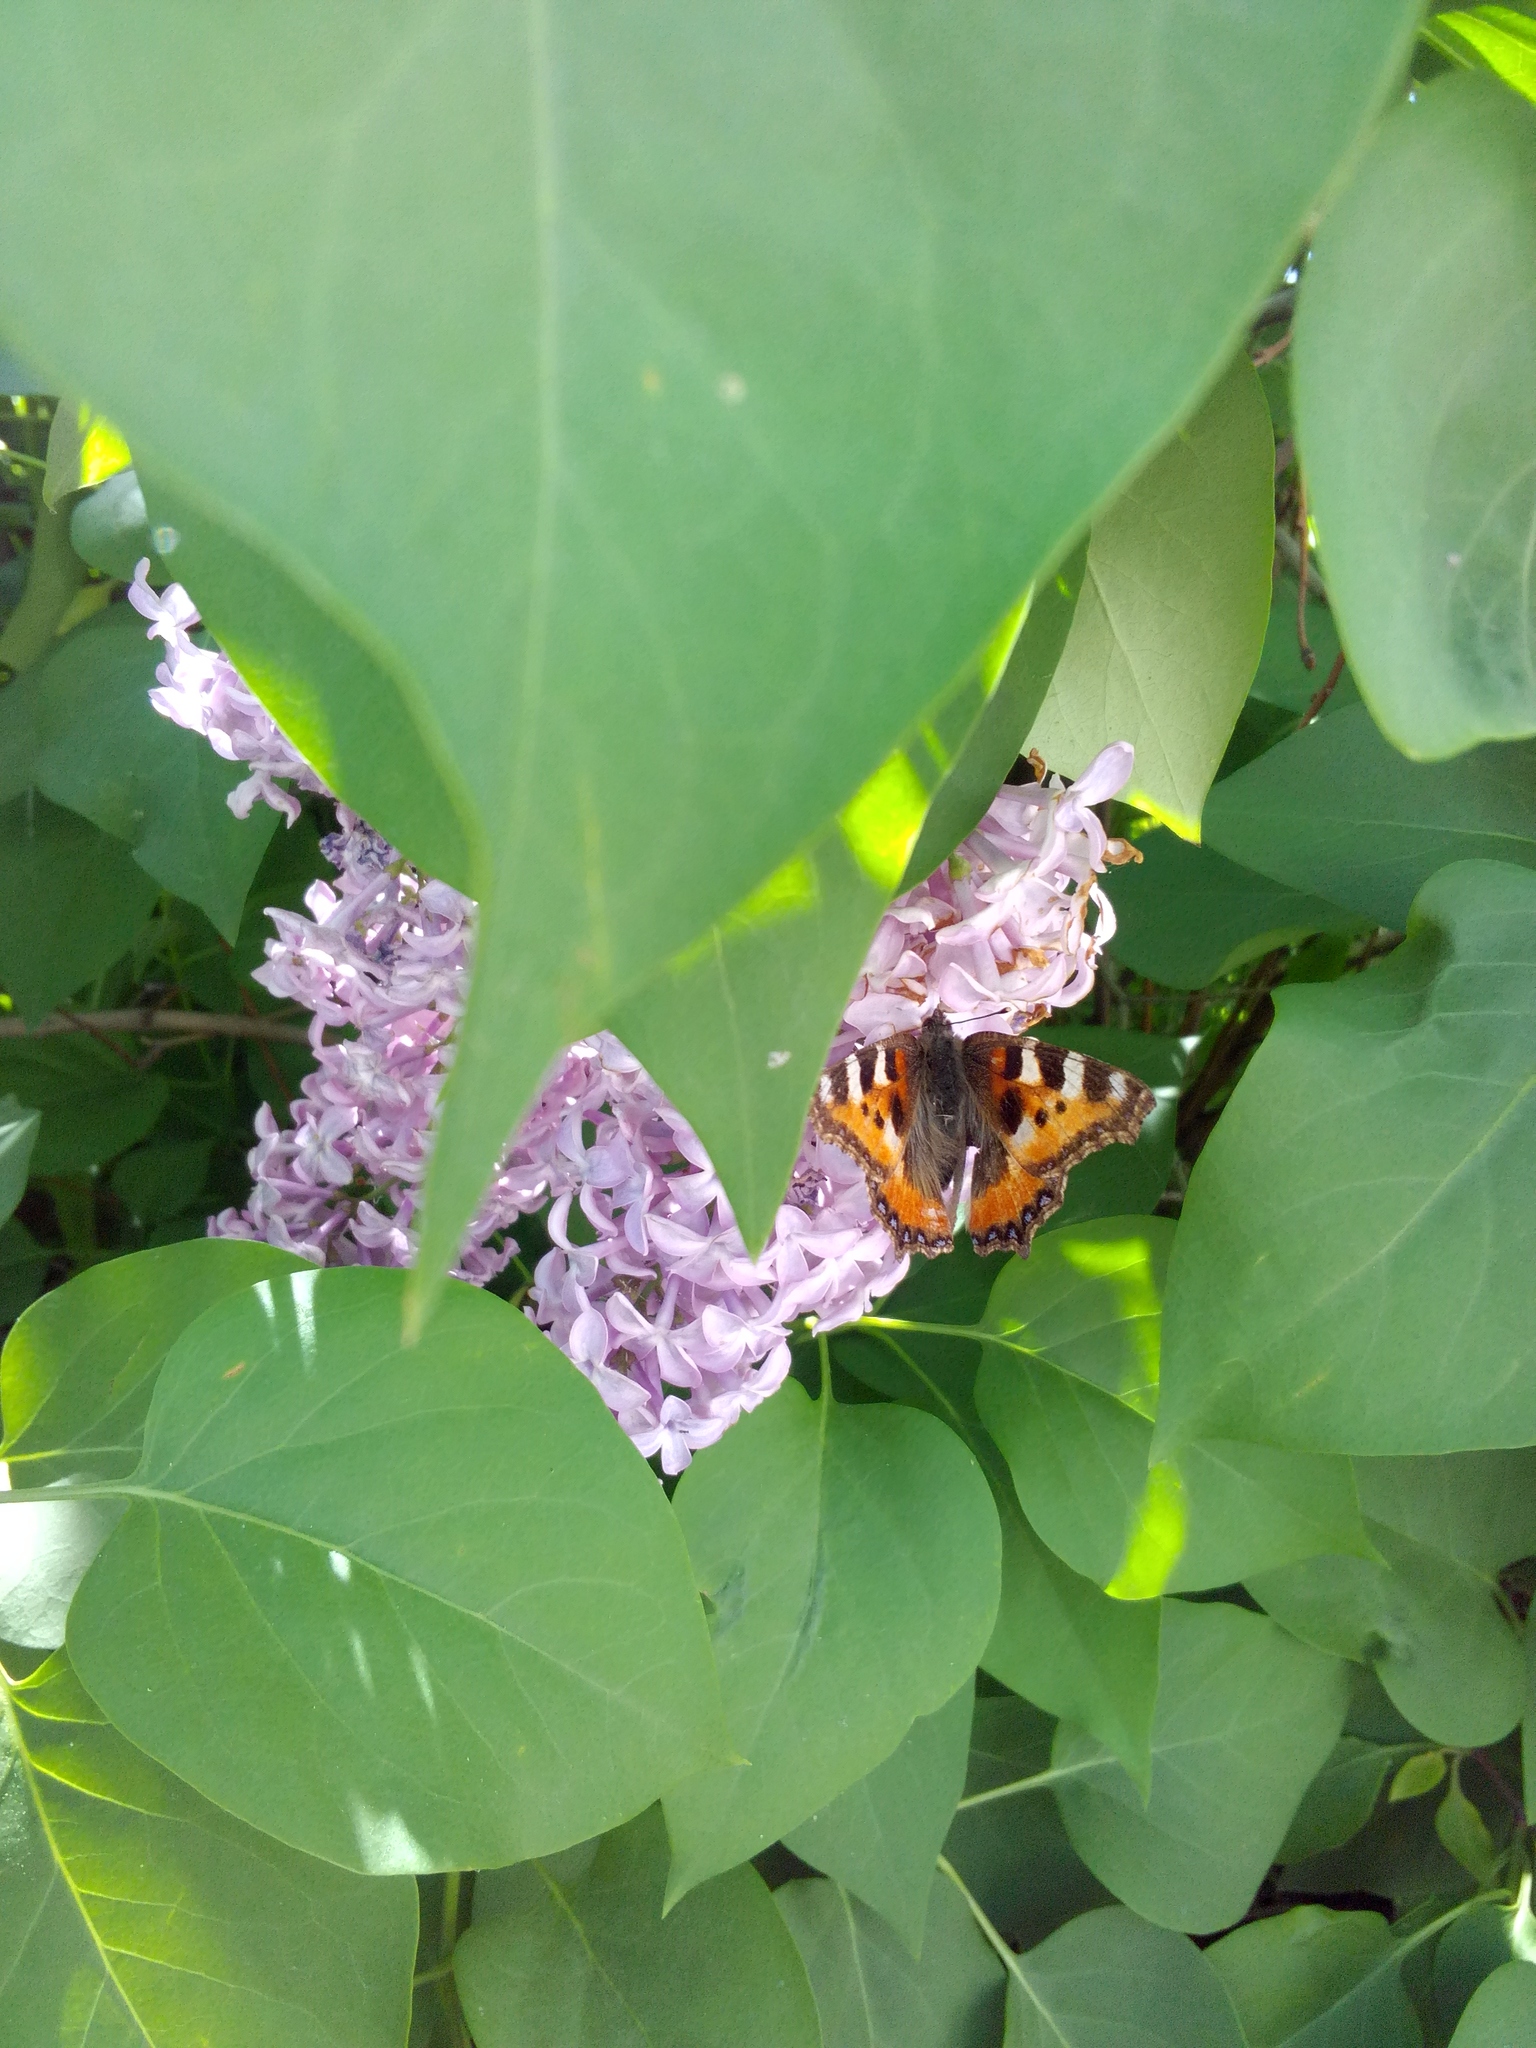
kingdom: Animalia
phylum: Arthropoda
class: Insecta
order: Lepidoptera
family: Nymphalidae
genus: Aglais
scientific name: Aglais urticae
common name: Small tortoiseshell
